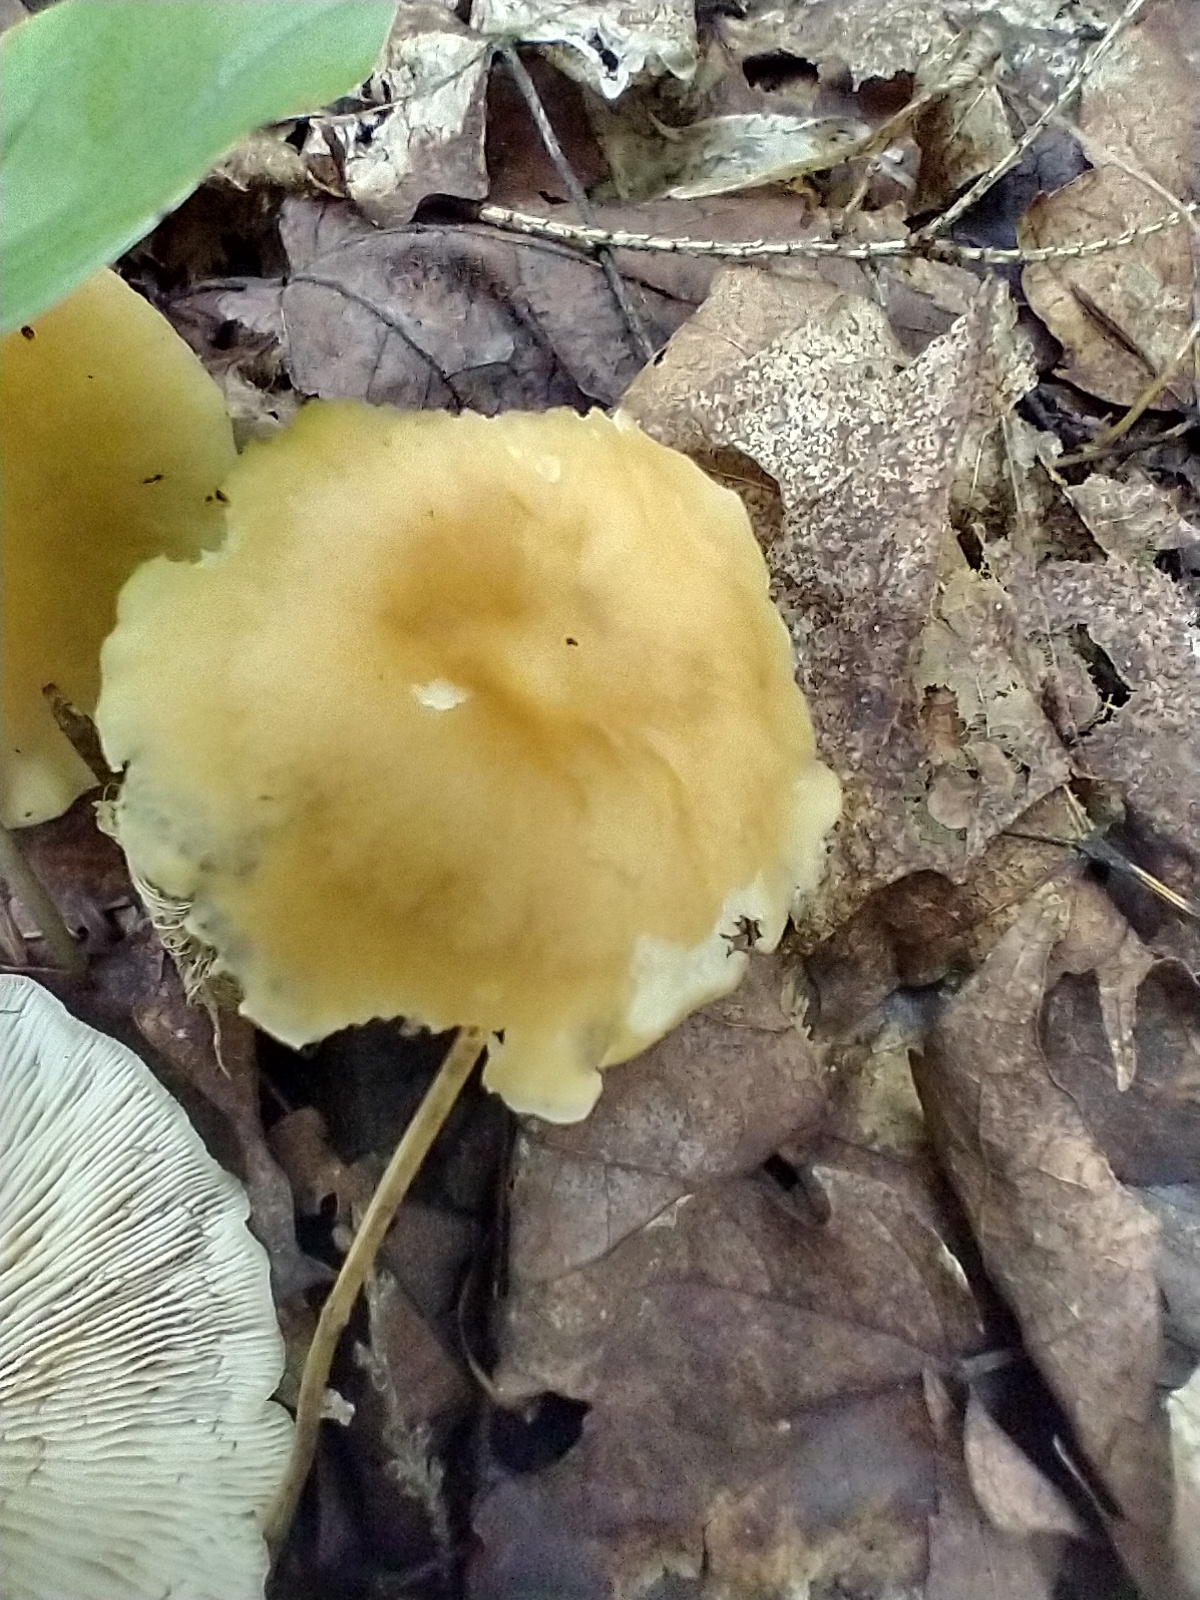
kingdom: Fungi
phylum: Basidiomycota
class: Agaricomycetes
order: Agaricales
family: Omphalotaceae
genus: Gymnopus
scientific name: Gymnopus dryophilus
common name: Penny top
